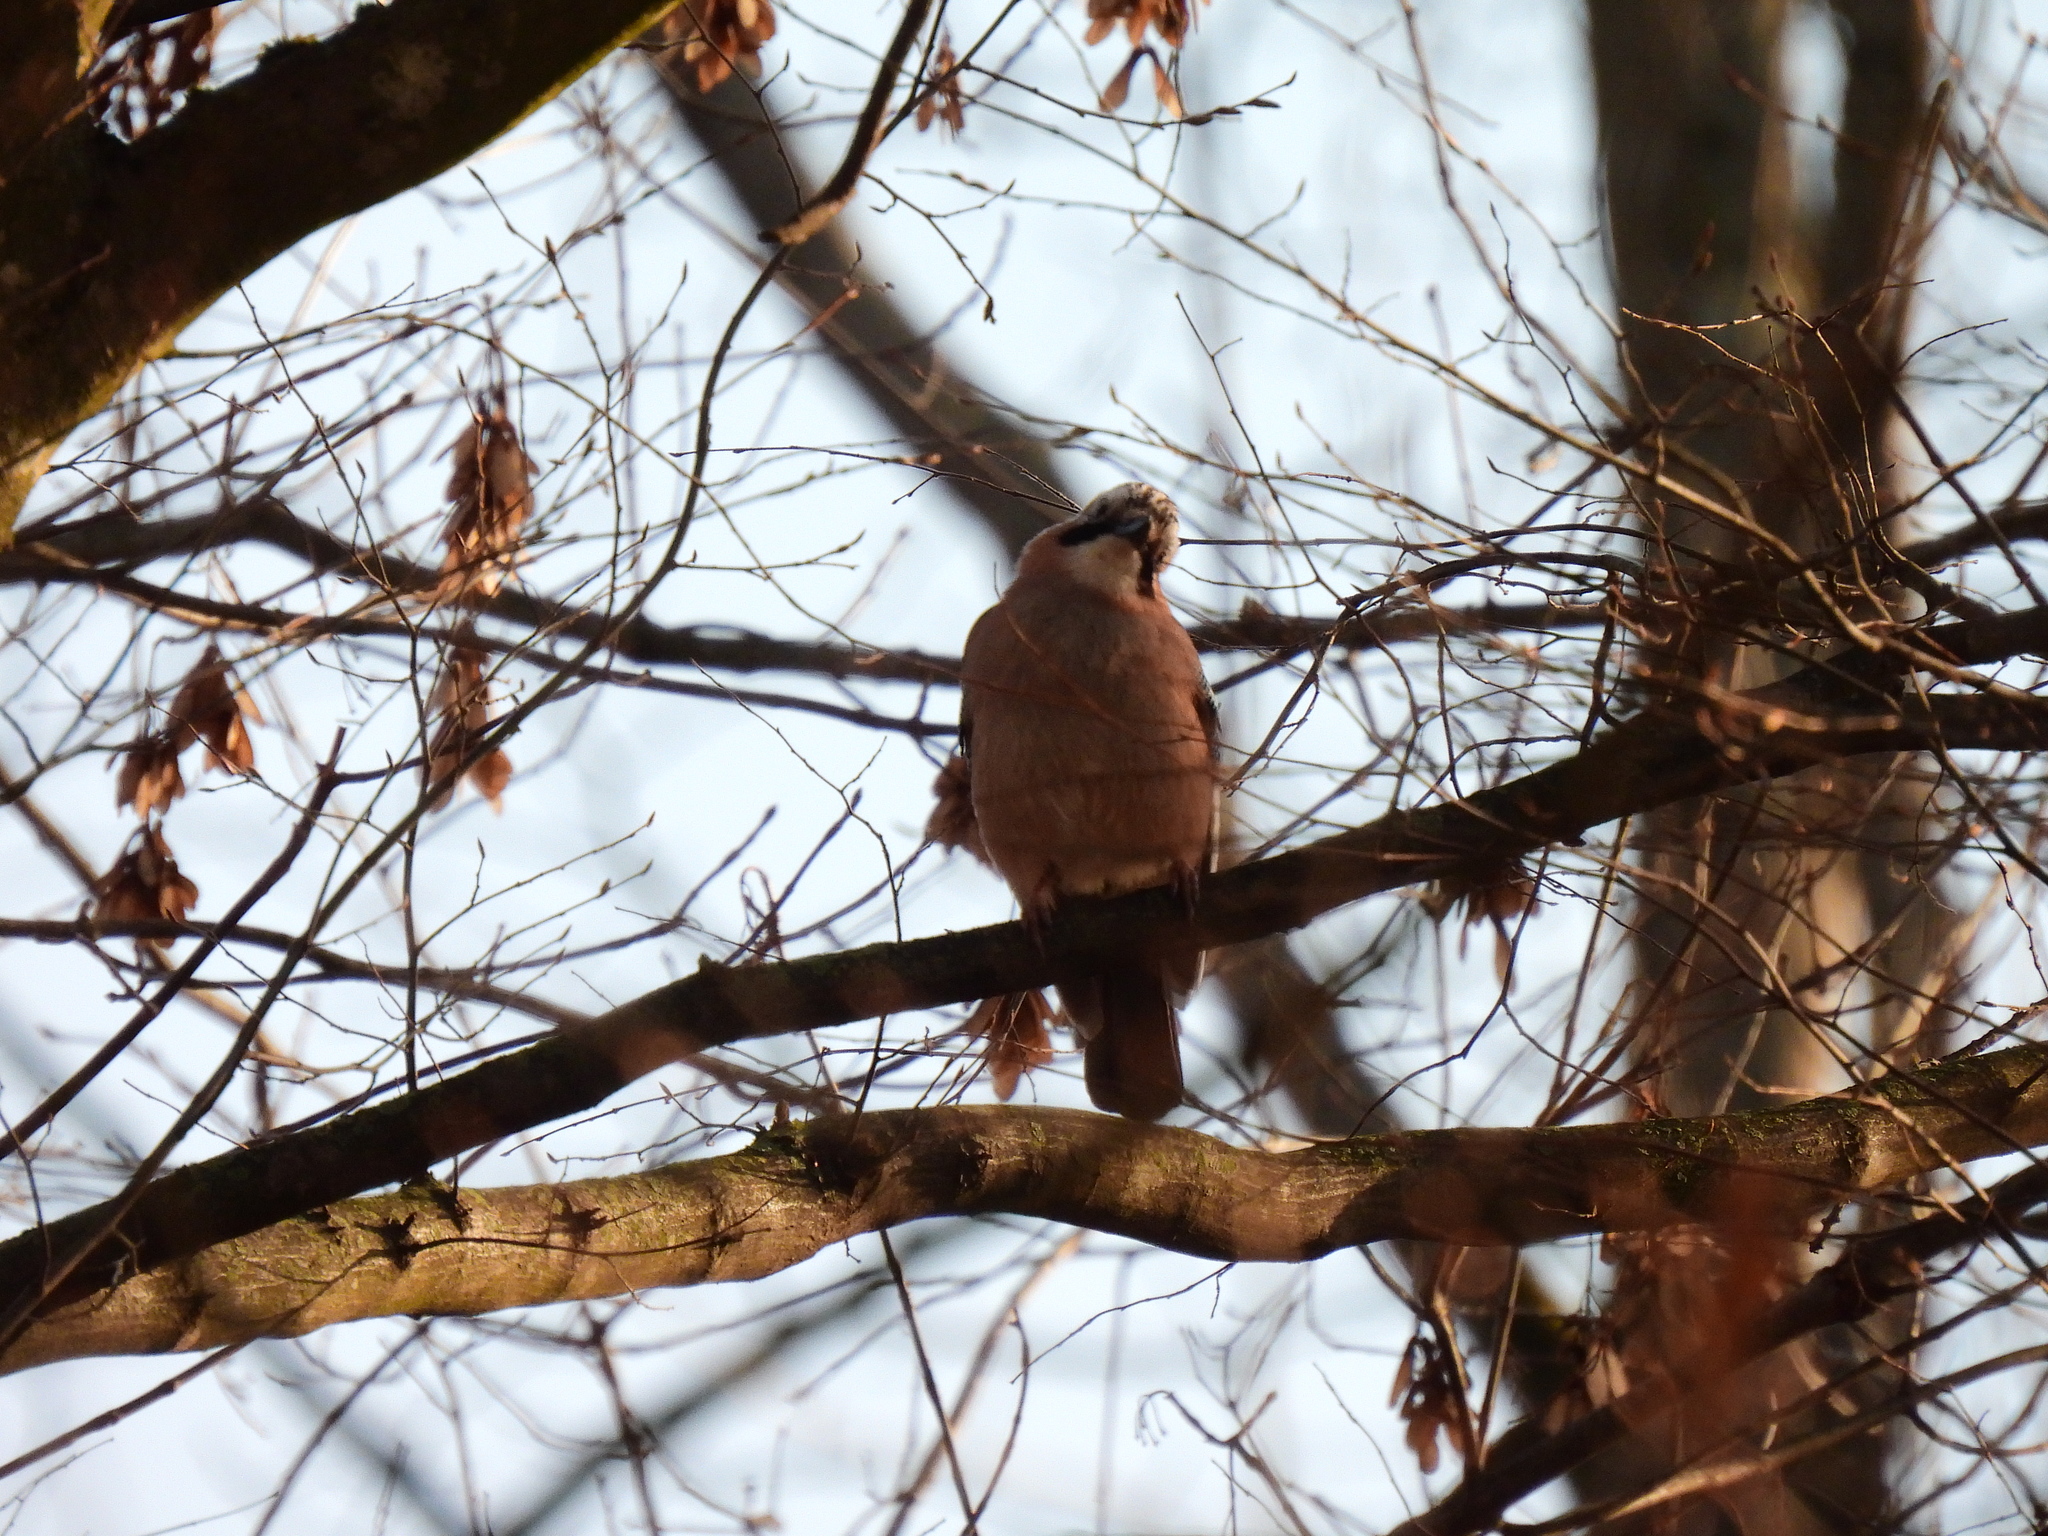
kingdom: Animalia
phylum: Chordata
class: Aves
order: Passeriformes
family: Corvidae
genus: Garrulus
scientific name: Garrulus glandarius
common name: Eurasian jay
